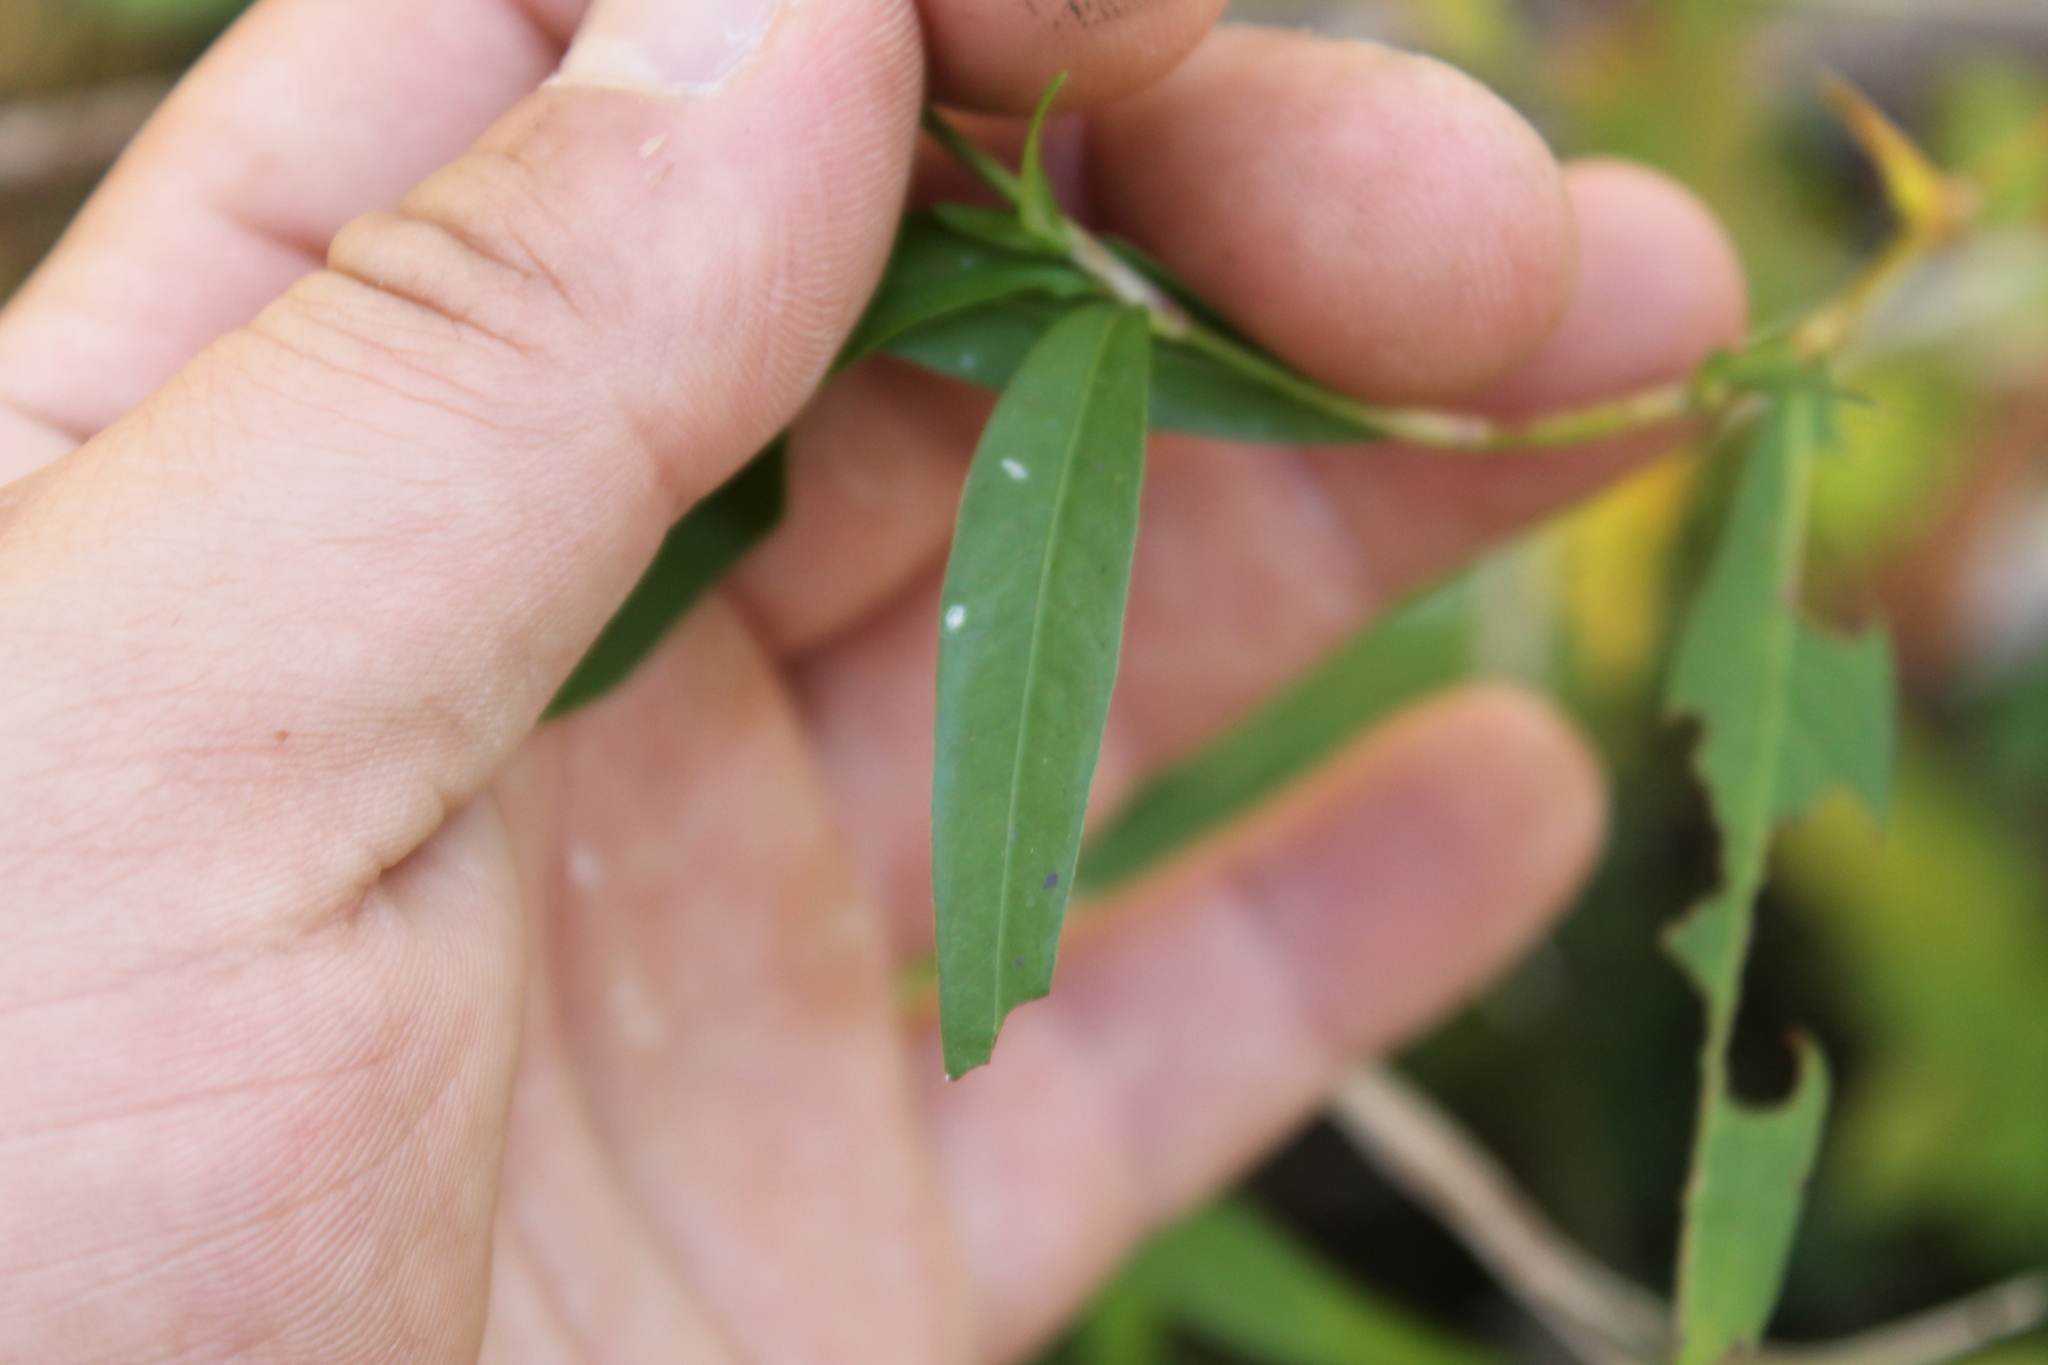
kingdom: Plantae
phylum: Tracheophyta
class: Magnoliopsida
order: Caryophyllales
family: Polygonaceae
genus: Persicaria
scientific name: Persicaria hydropiperoides
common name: Swamp smartweed
